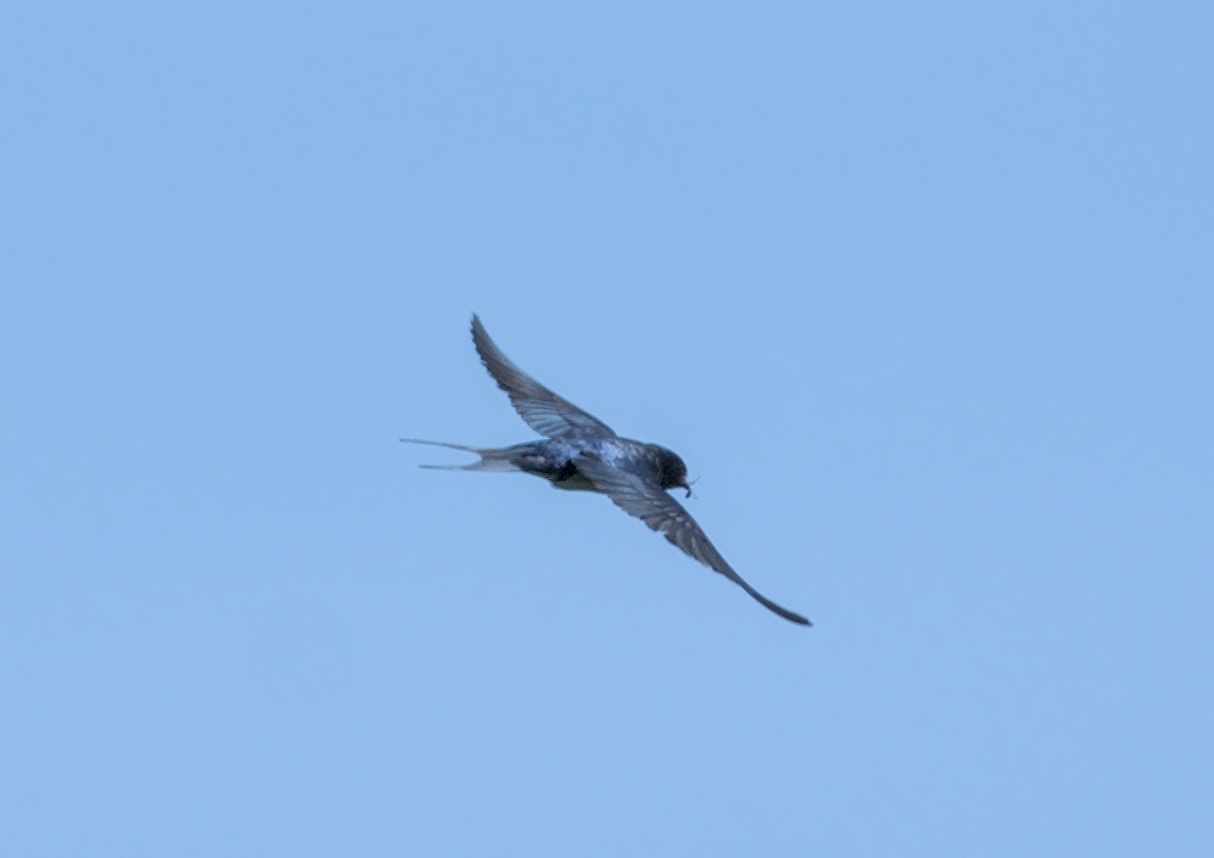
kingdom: Animalia
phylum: Chordata
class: Aves
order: Passeriformes
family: Hirundinidae
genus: Hirundo
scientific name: Hirundo rustica
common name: Barn swallow
